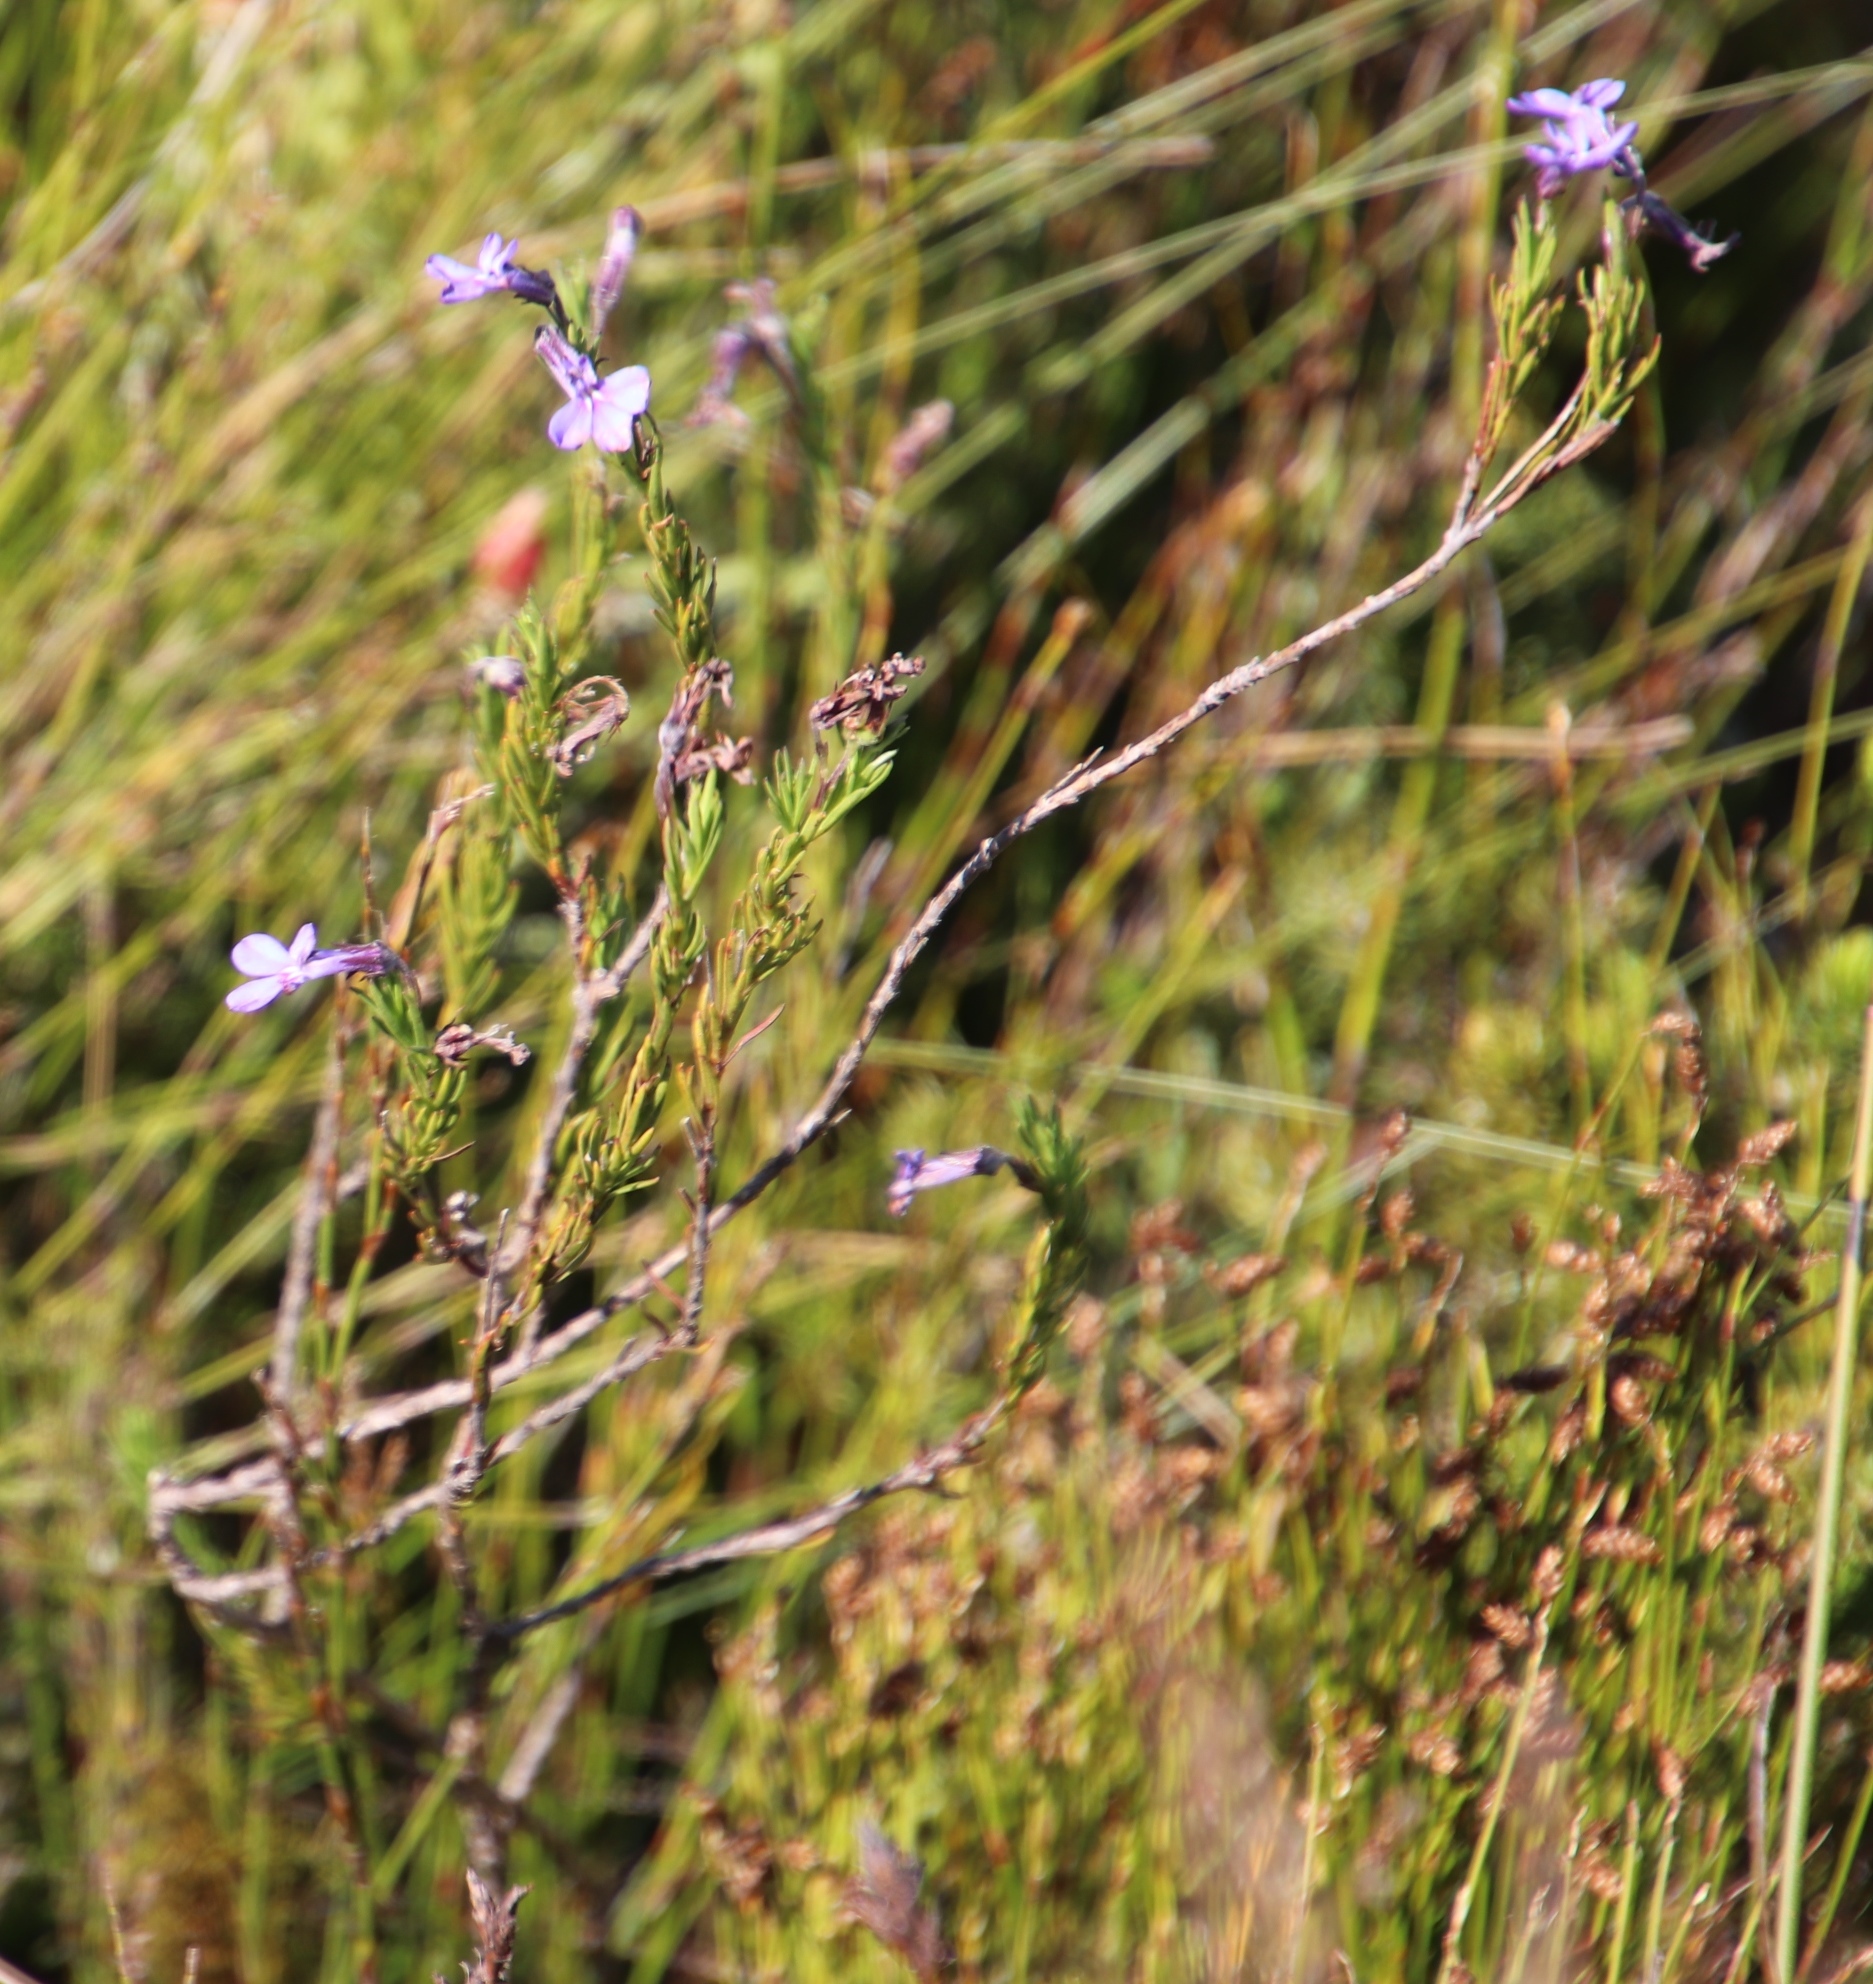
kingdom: Plantae
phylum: Tracheophyta
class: Magnoliopsida
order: Asterales
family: Campanulaceae
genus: Lobelia
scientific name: Lobelia pinifolia
